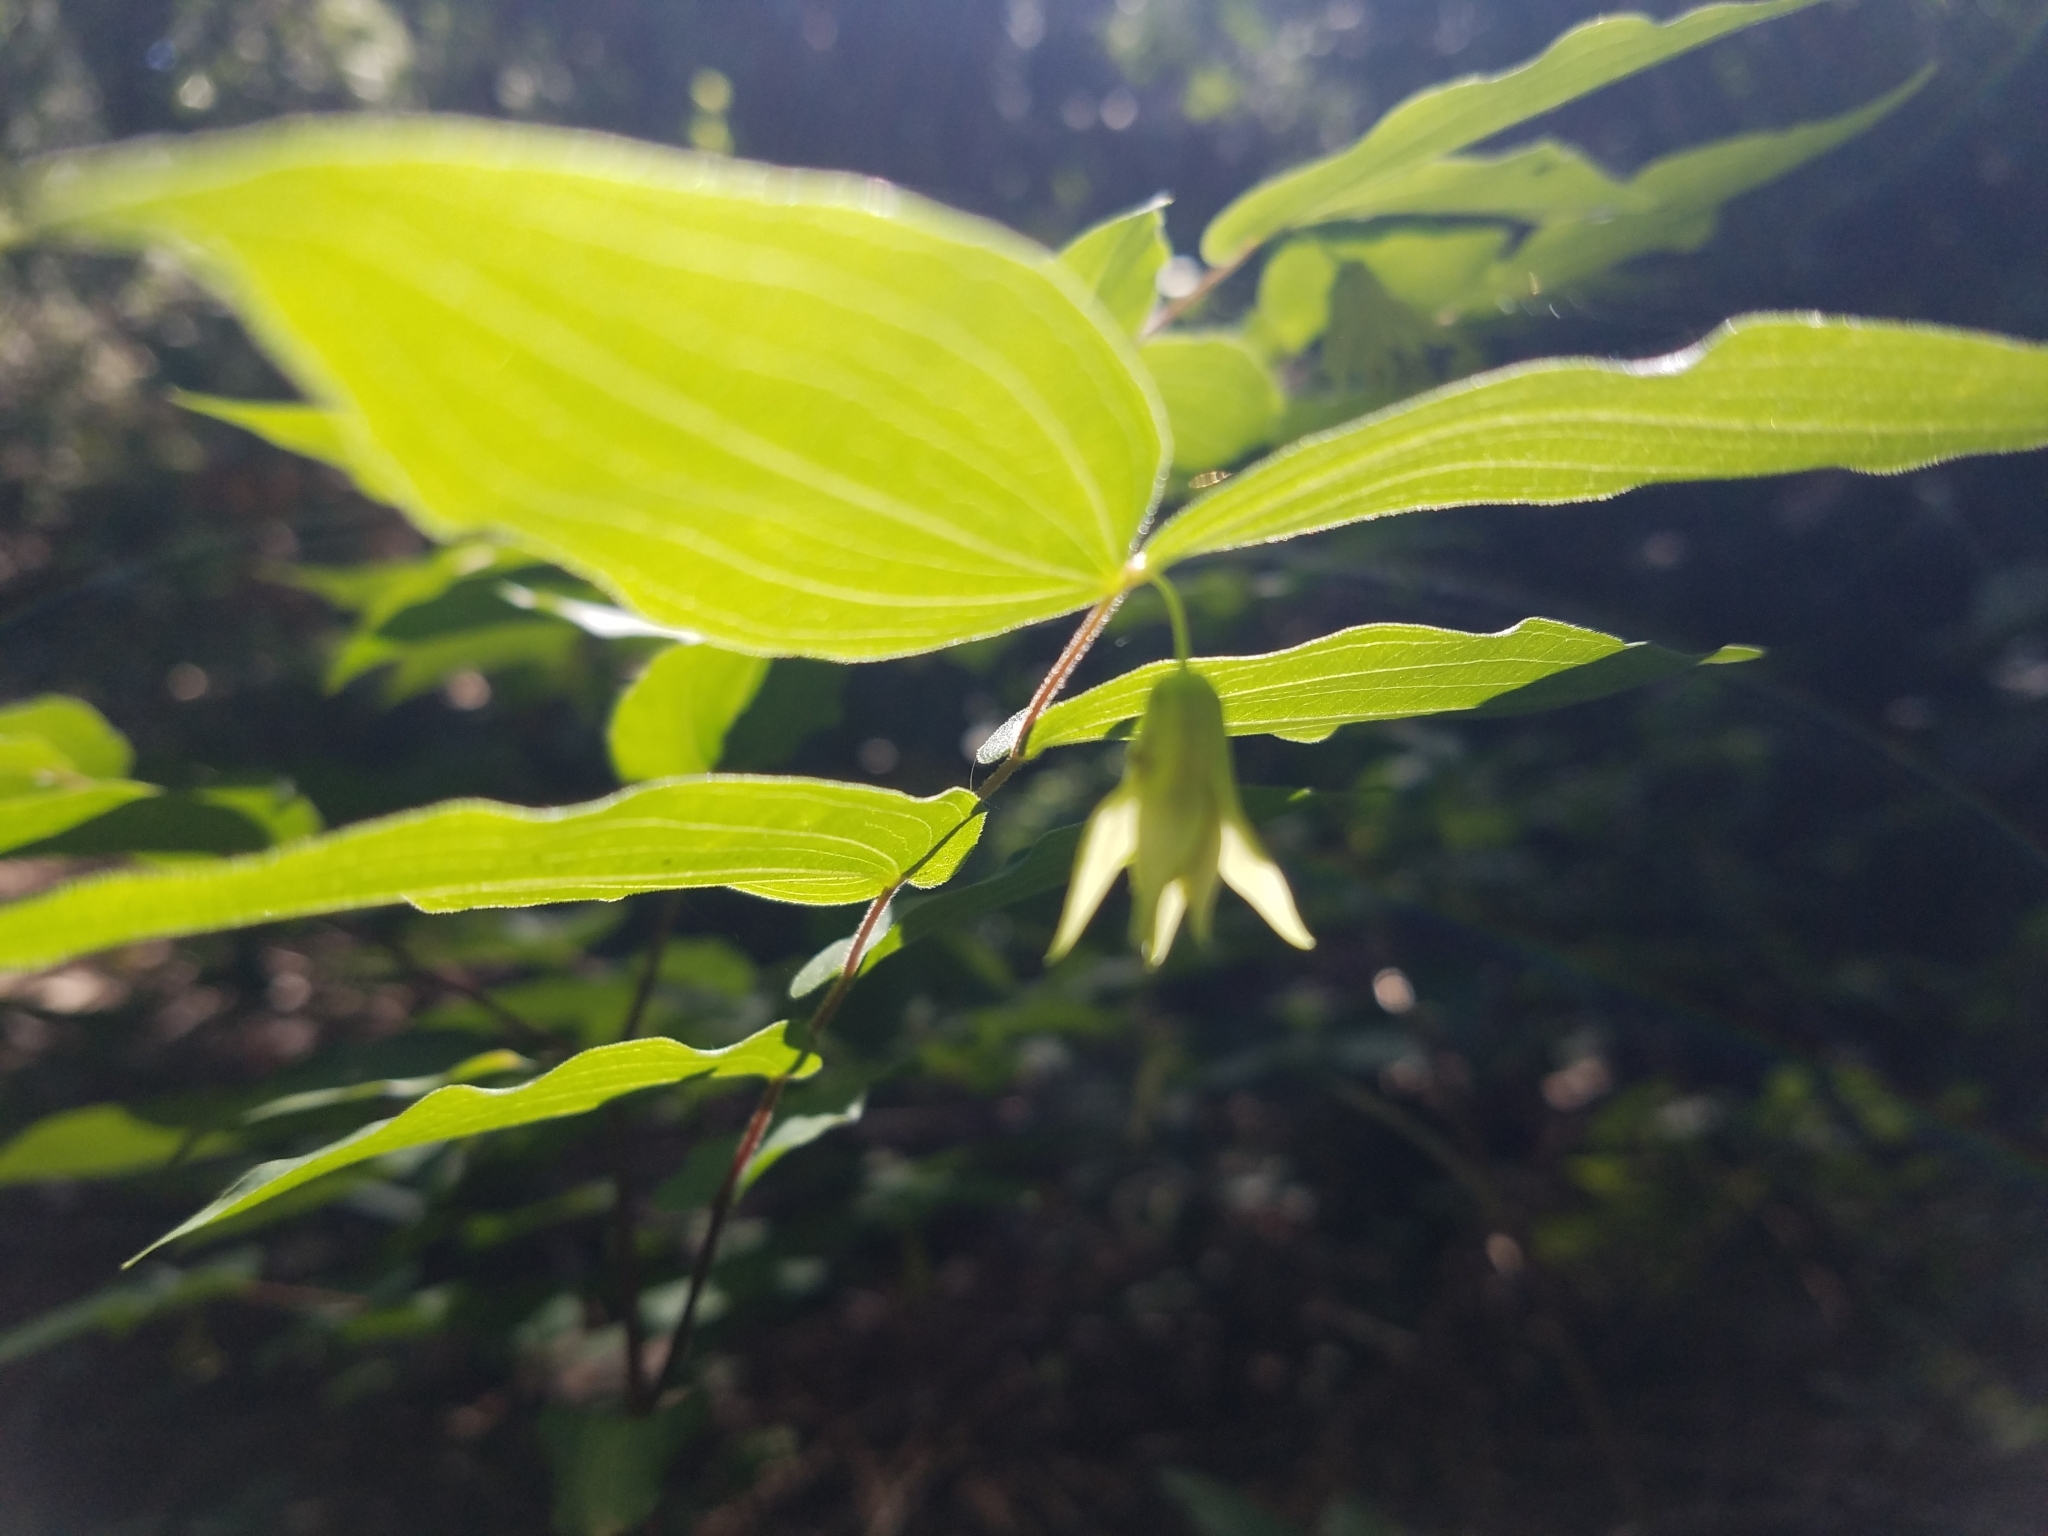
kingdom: Plantae
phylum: Tracheophyta
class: Liliopsida
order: Liliales
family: Liliaceae
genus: Prosartes
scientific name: Prosartes hookeri
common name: Fairy-bells
